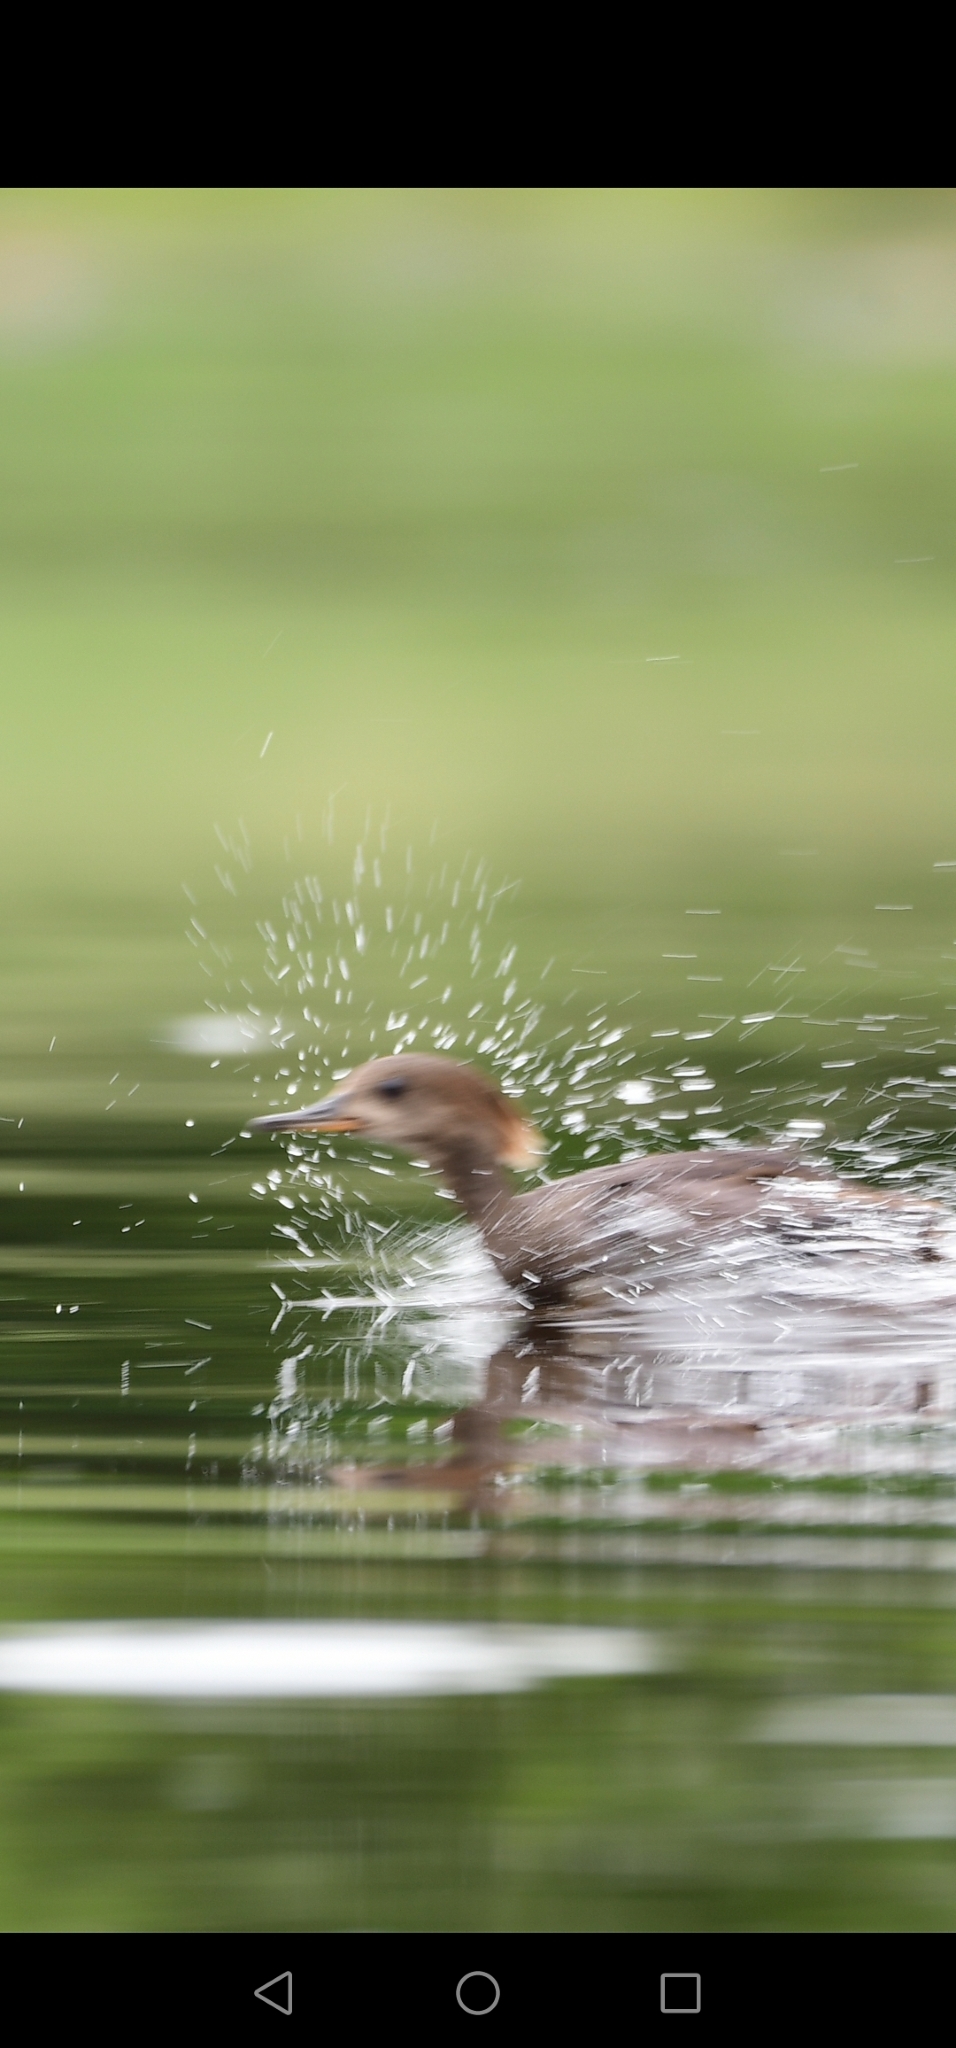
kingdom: Animalia
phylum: Chordata
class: Aves
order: Anseriformes
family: Anatidae
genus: Mergus
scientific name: Mergus merganser
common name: Common merganser
